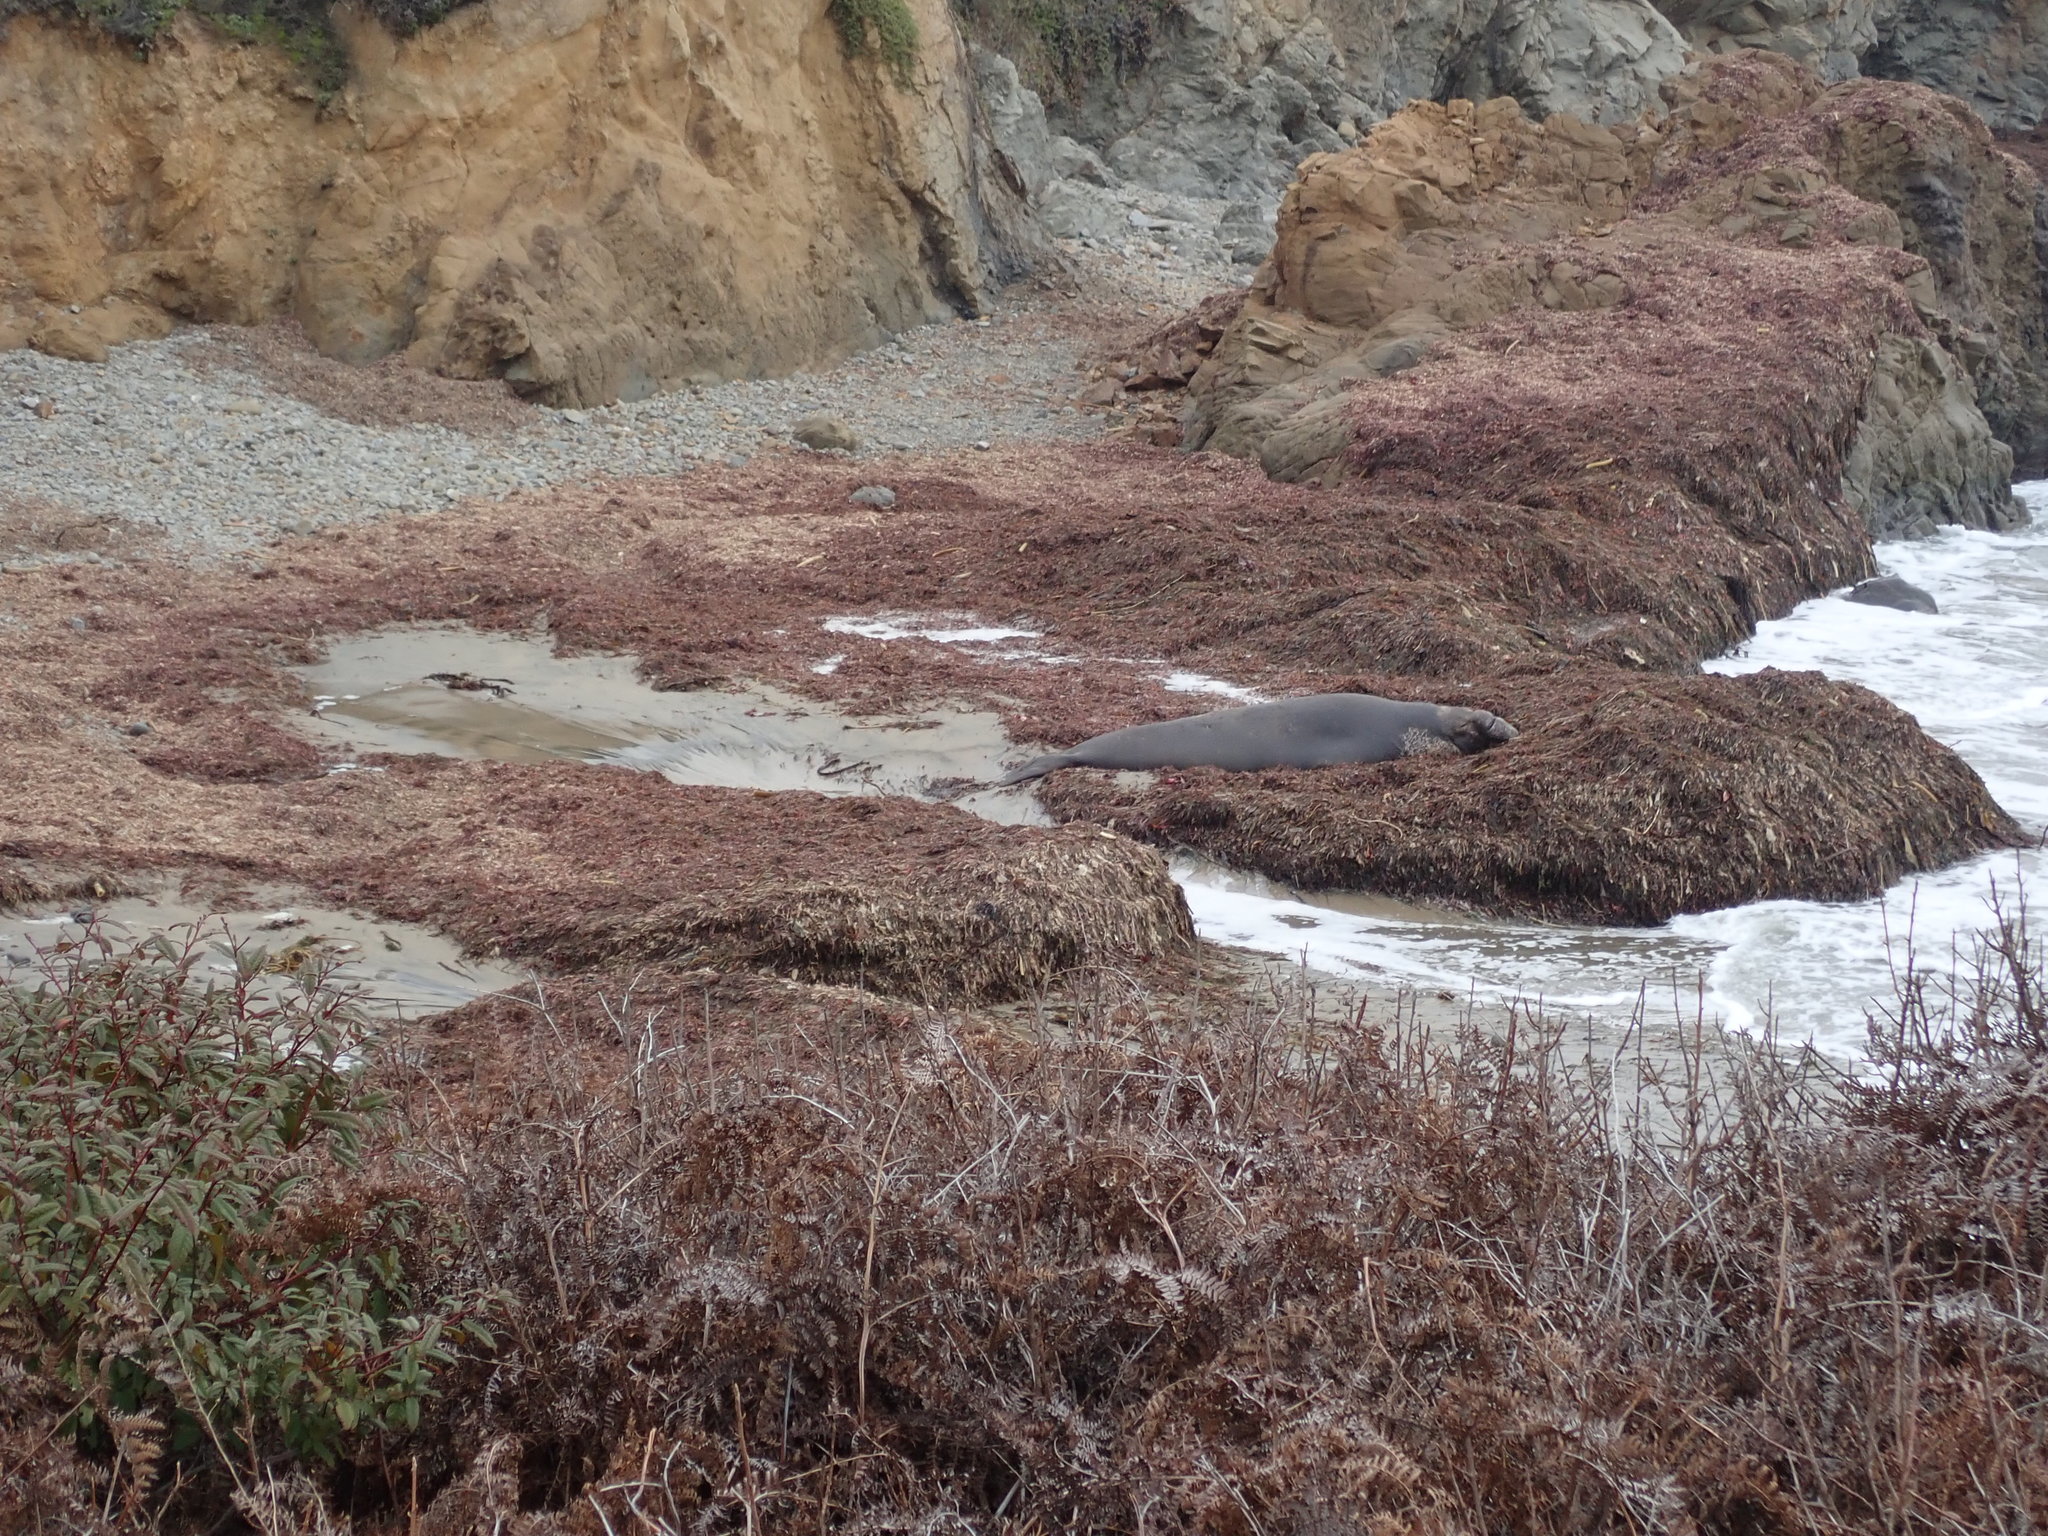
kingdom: Animalia
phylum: Chordata
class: Mammalia
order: Carnivora
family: Phocidae
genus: Mirounga
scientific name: Mirounga angustirostris
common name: Northern elephant seal
